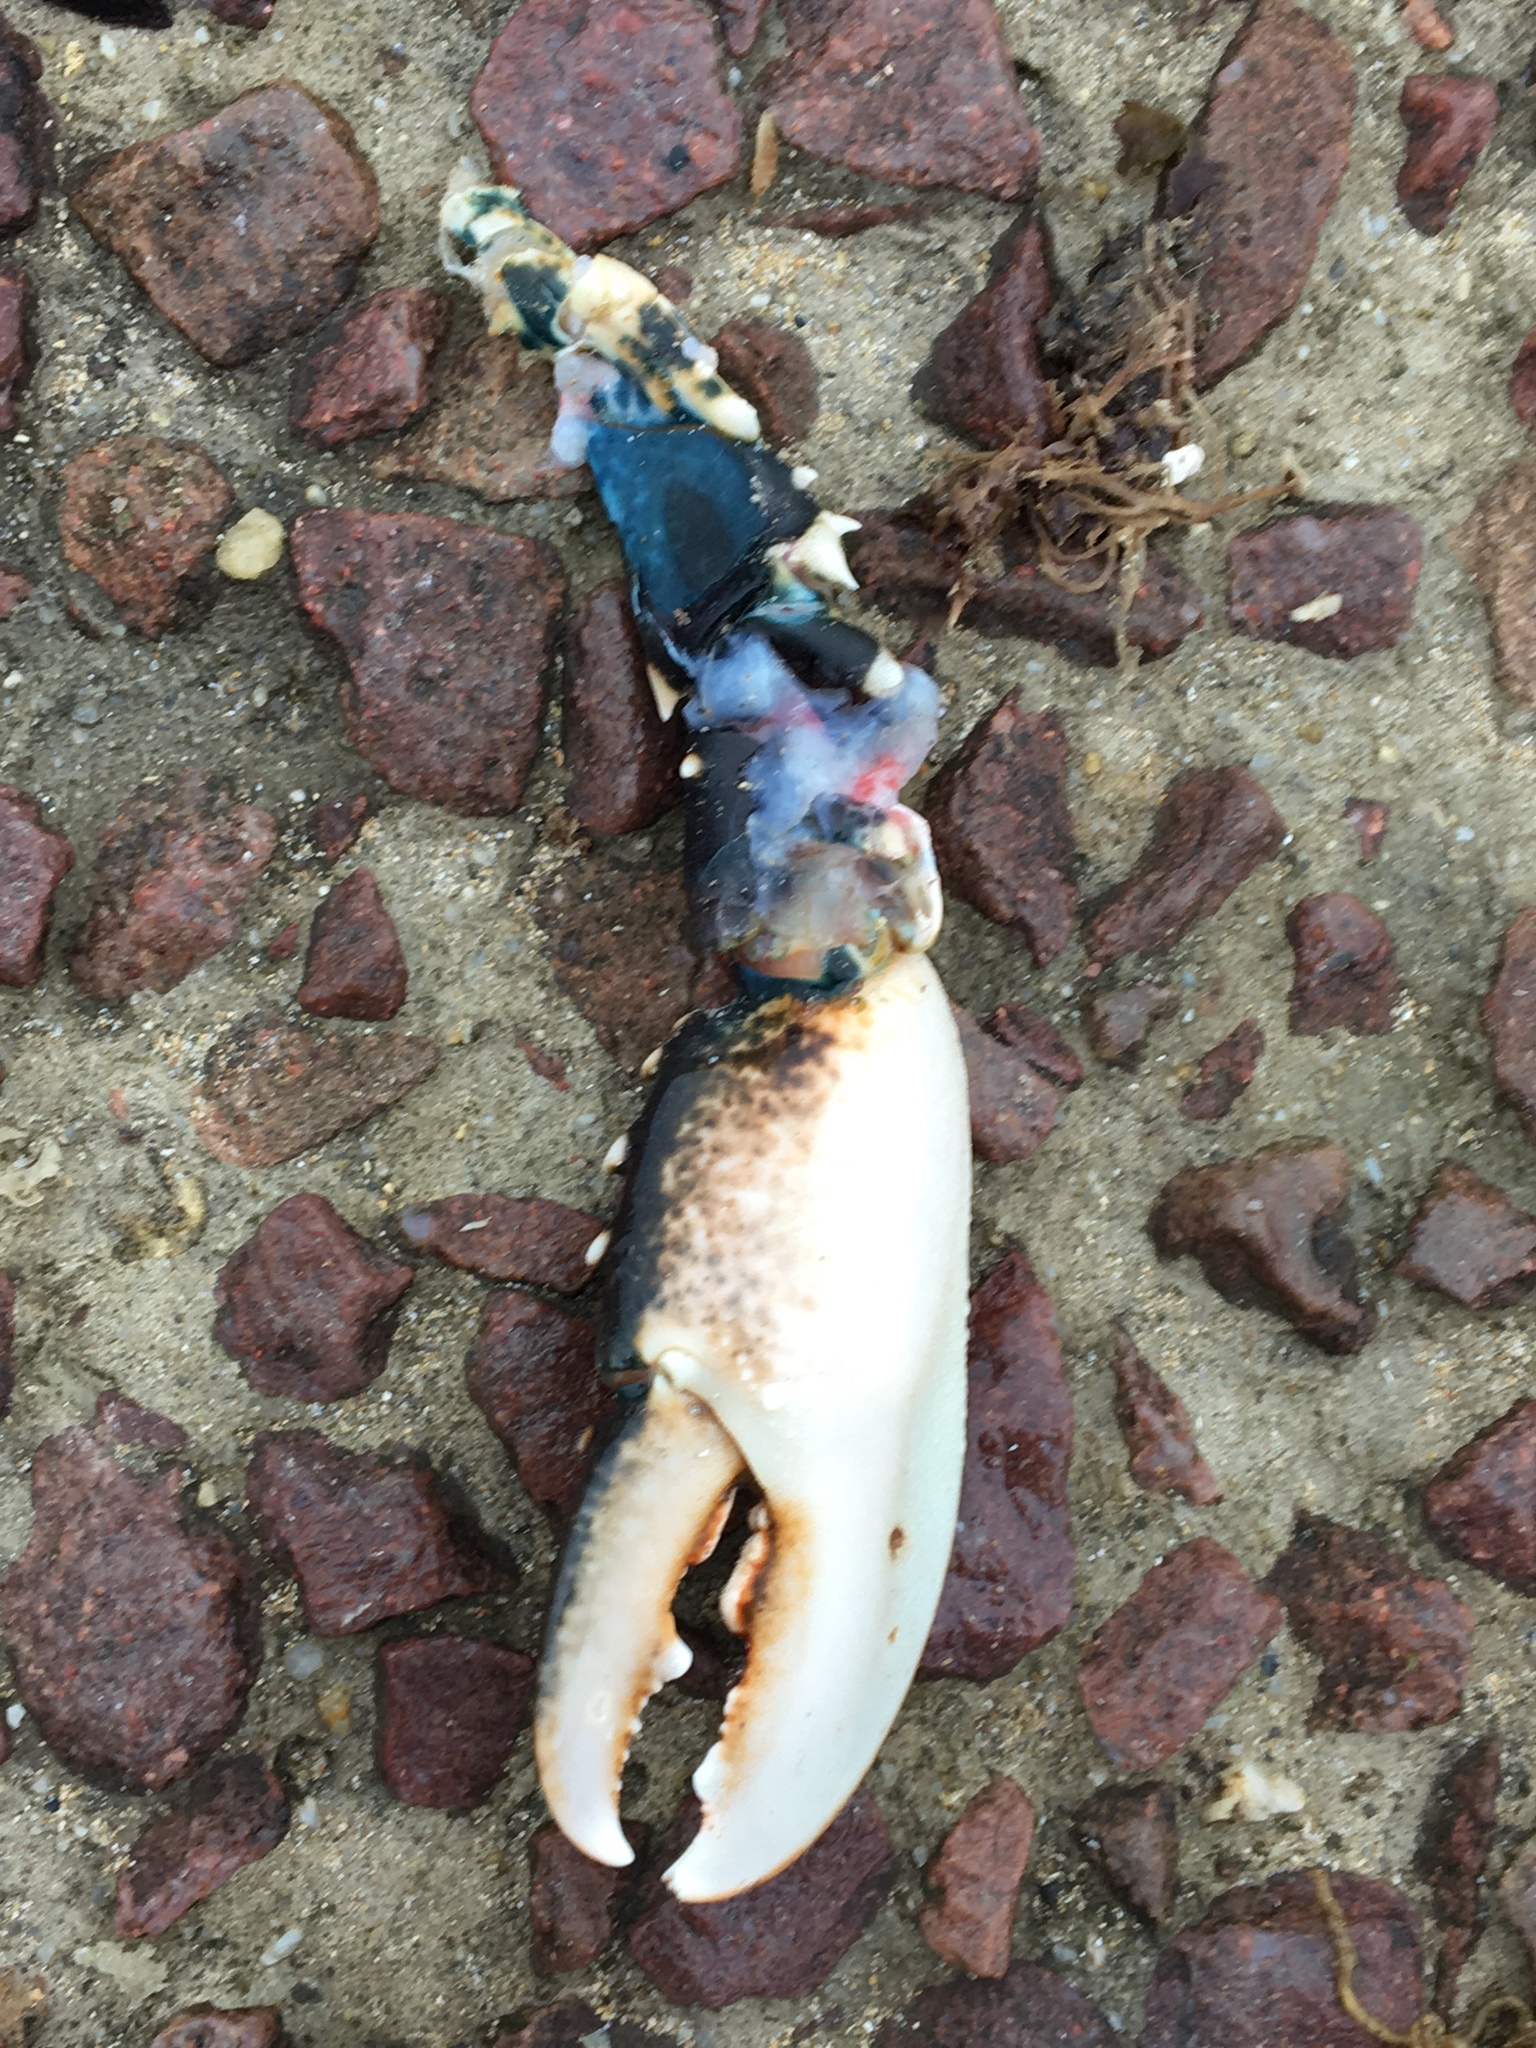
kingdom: Animalia
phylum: Arthropoda
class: Malacostraca
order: Decapoda
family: Nephropidae
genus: Homarus
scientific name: Homarus gammarus
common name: European lobster
